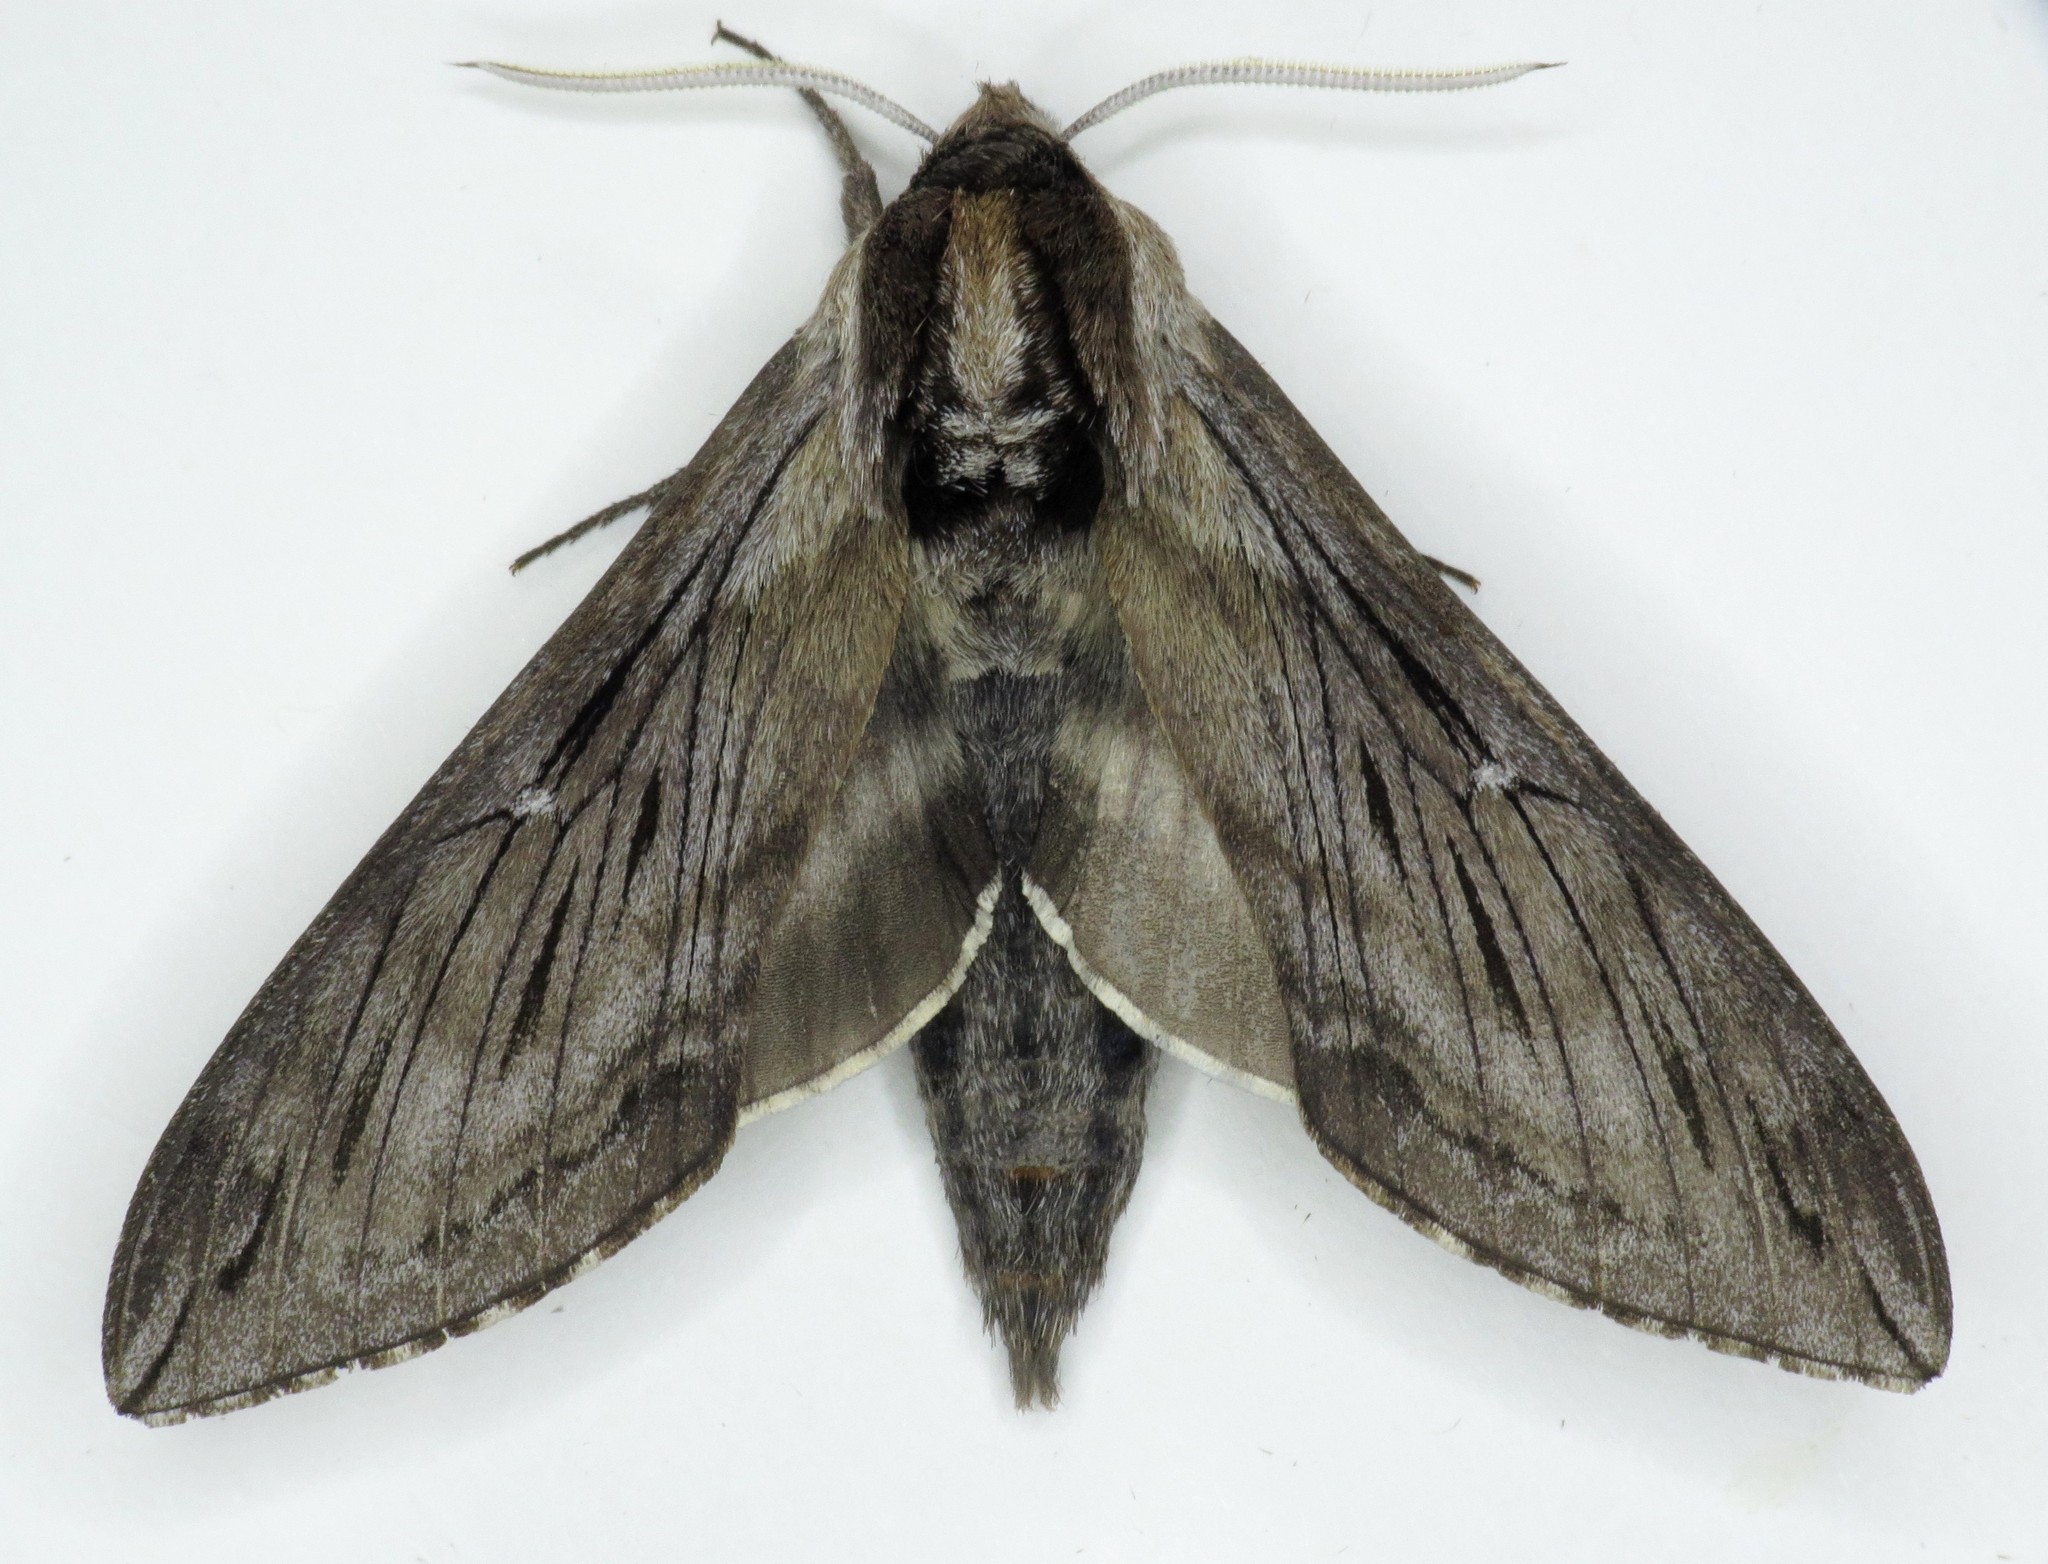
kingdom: Animalia
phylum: Arthropoda
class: Insecta
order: Lepidoptera
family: Sphingidae
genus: Sphinx
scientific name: Sphinx poecila
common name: Northern apple sphinx
